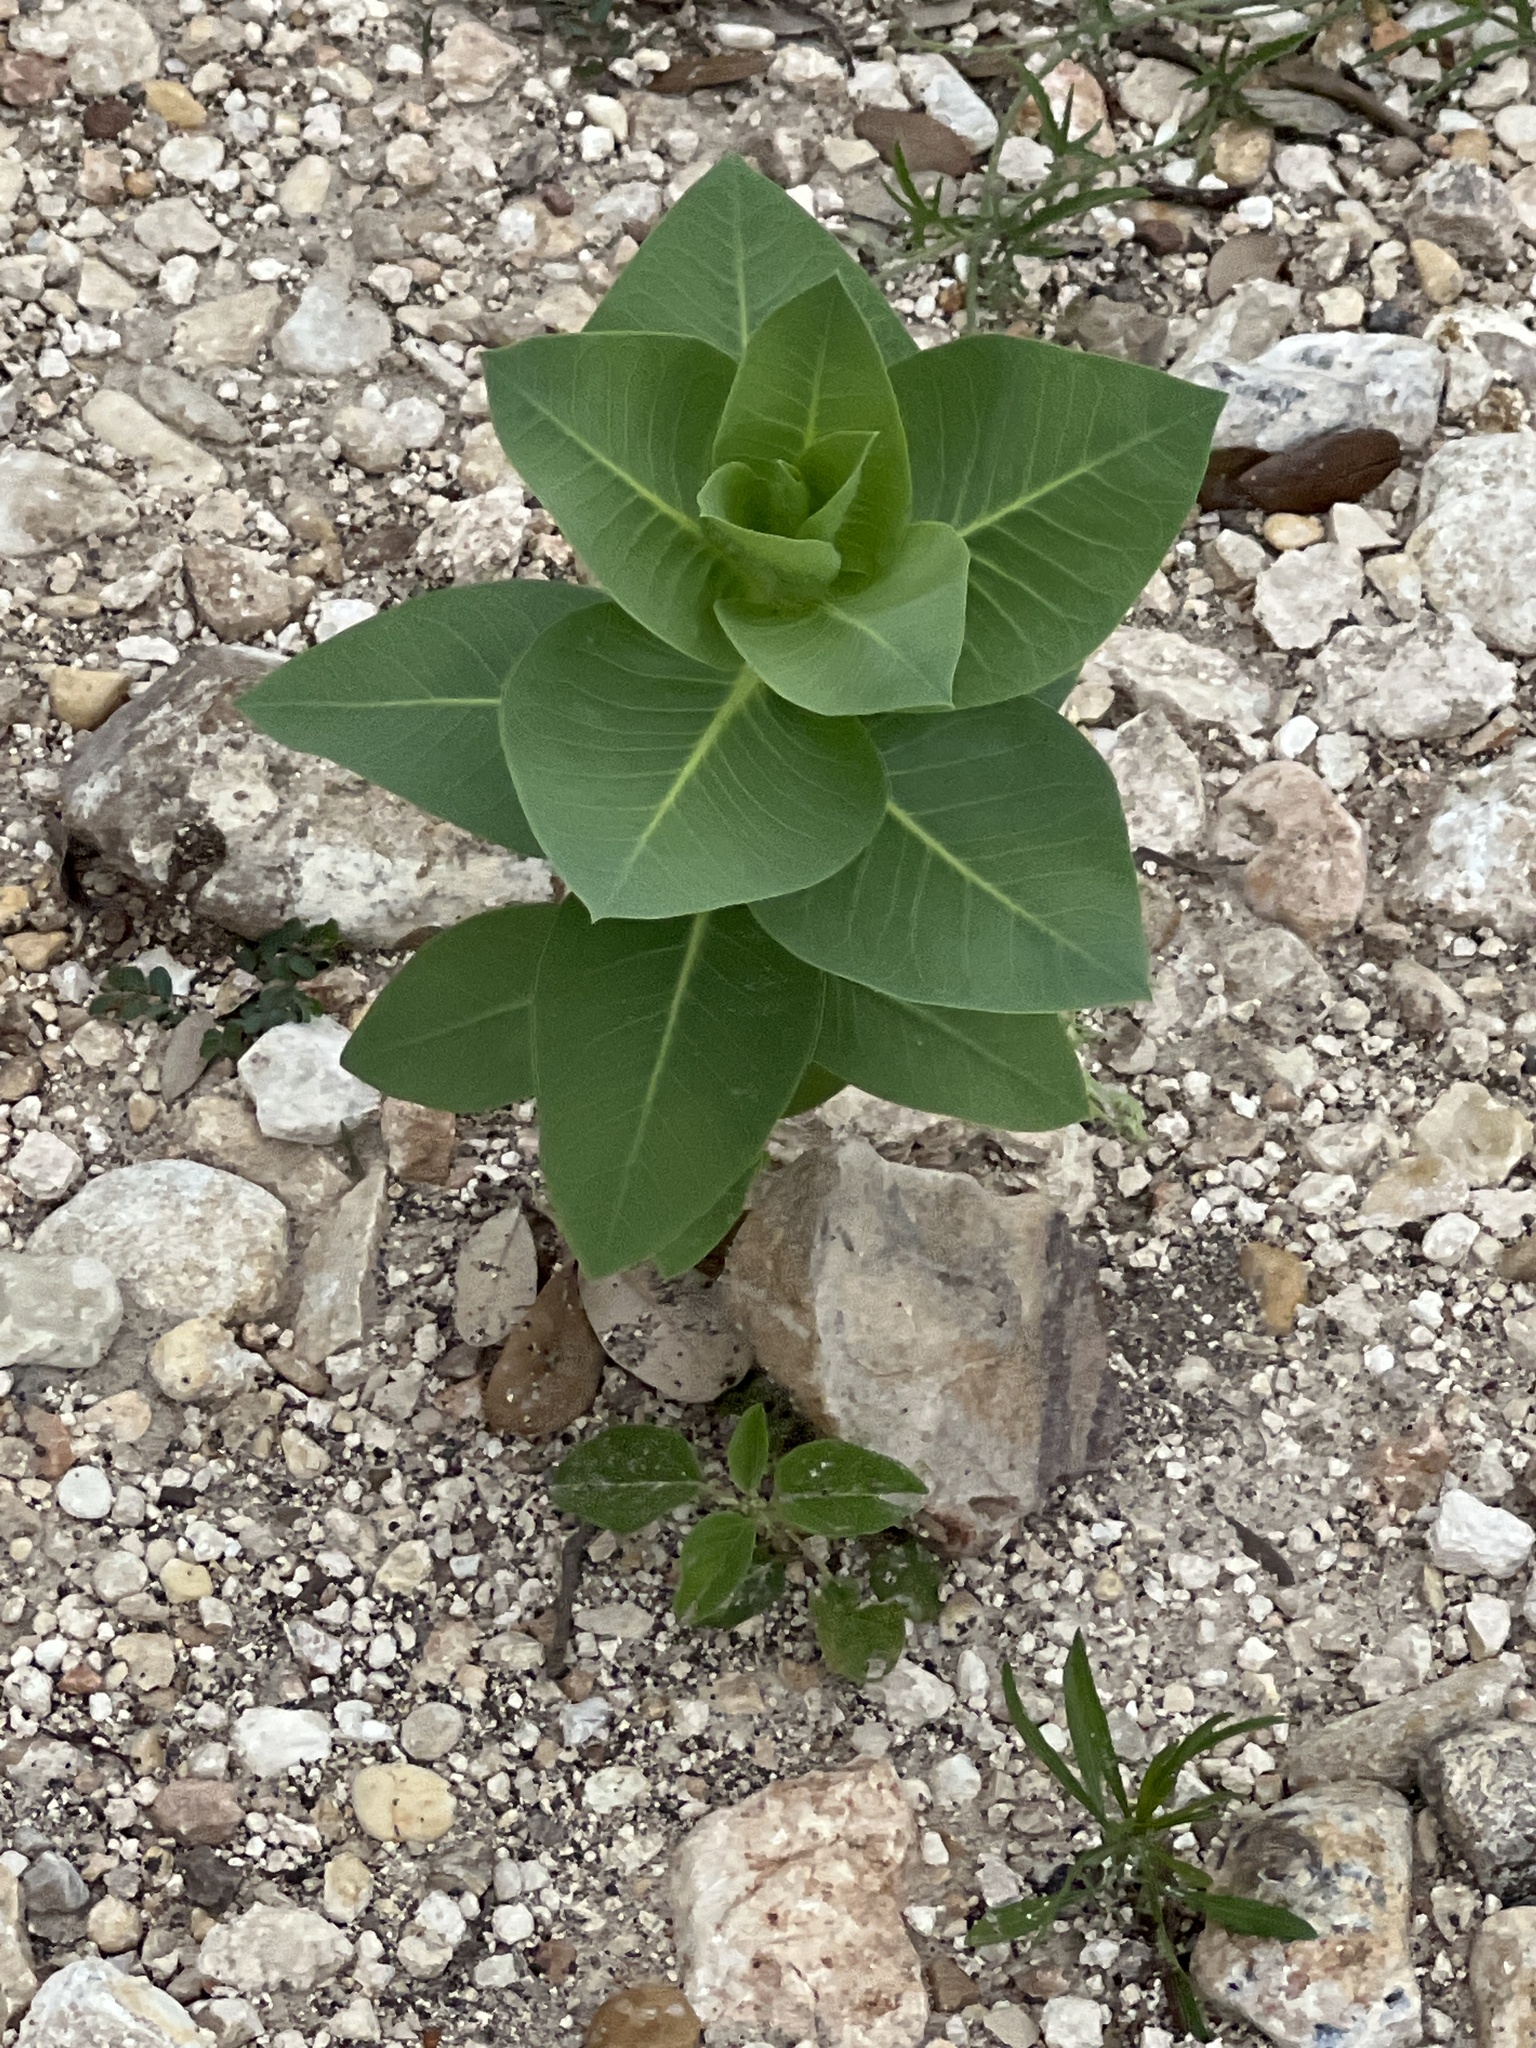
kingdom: Plantae
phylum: Tracheophyta
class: Magnoliopsida
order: Malpighiales
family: Euphorbiaceae
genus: Euphorbia
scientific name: Euphorbia marginata
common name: Ghostweed
